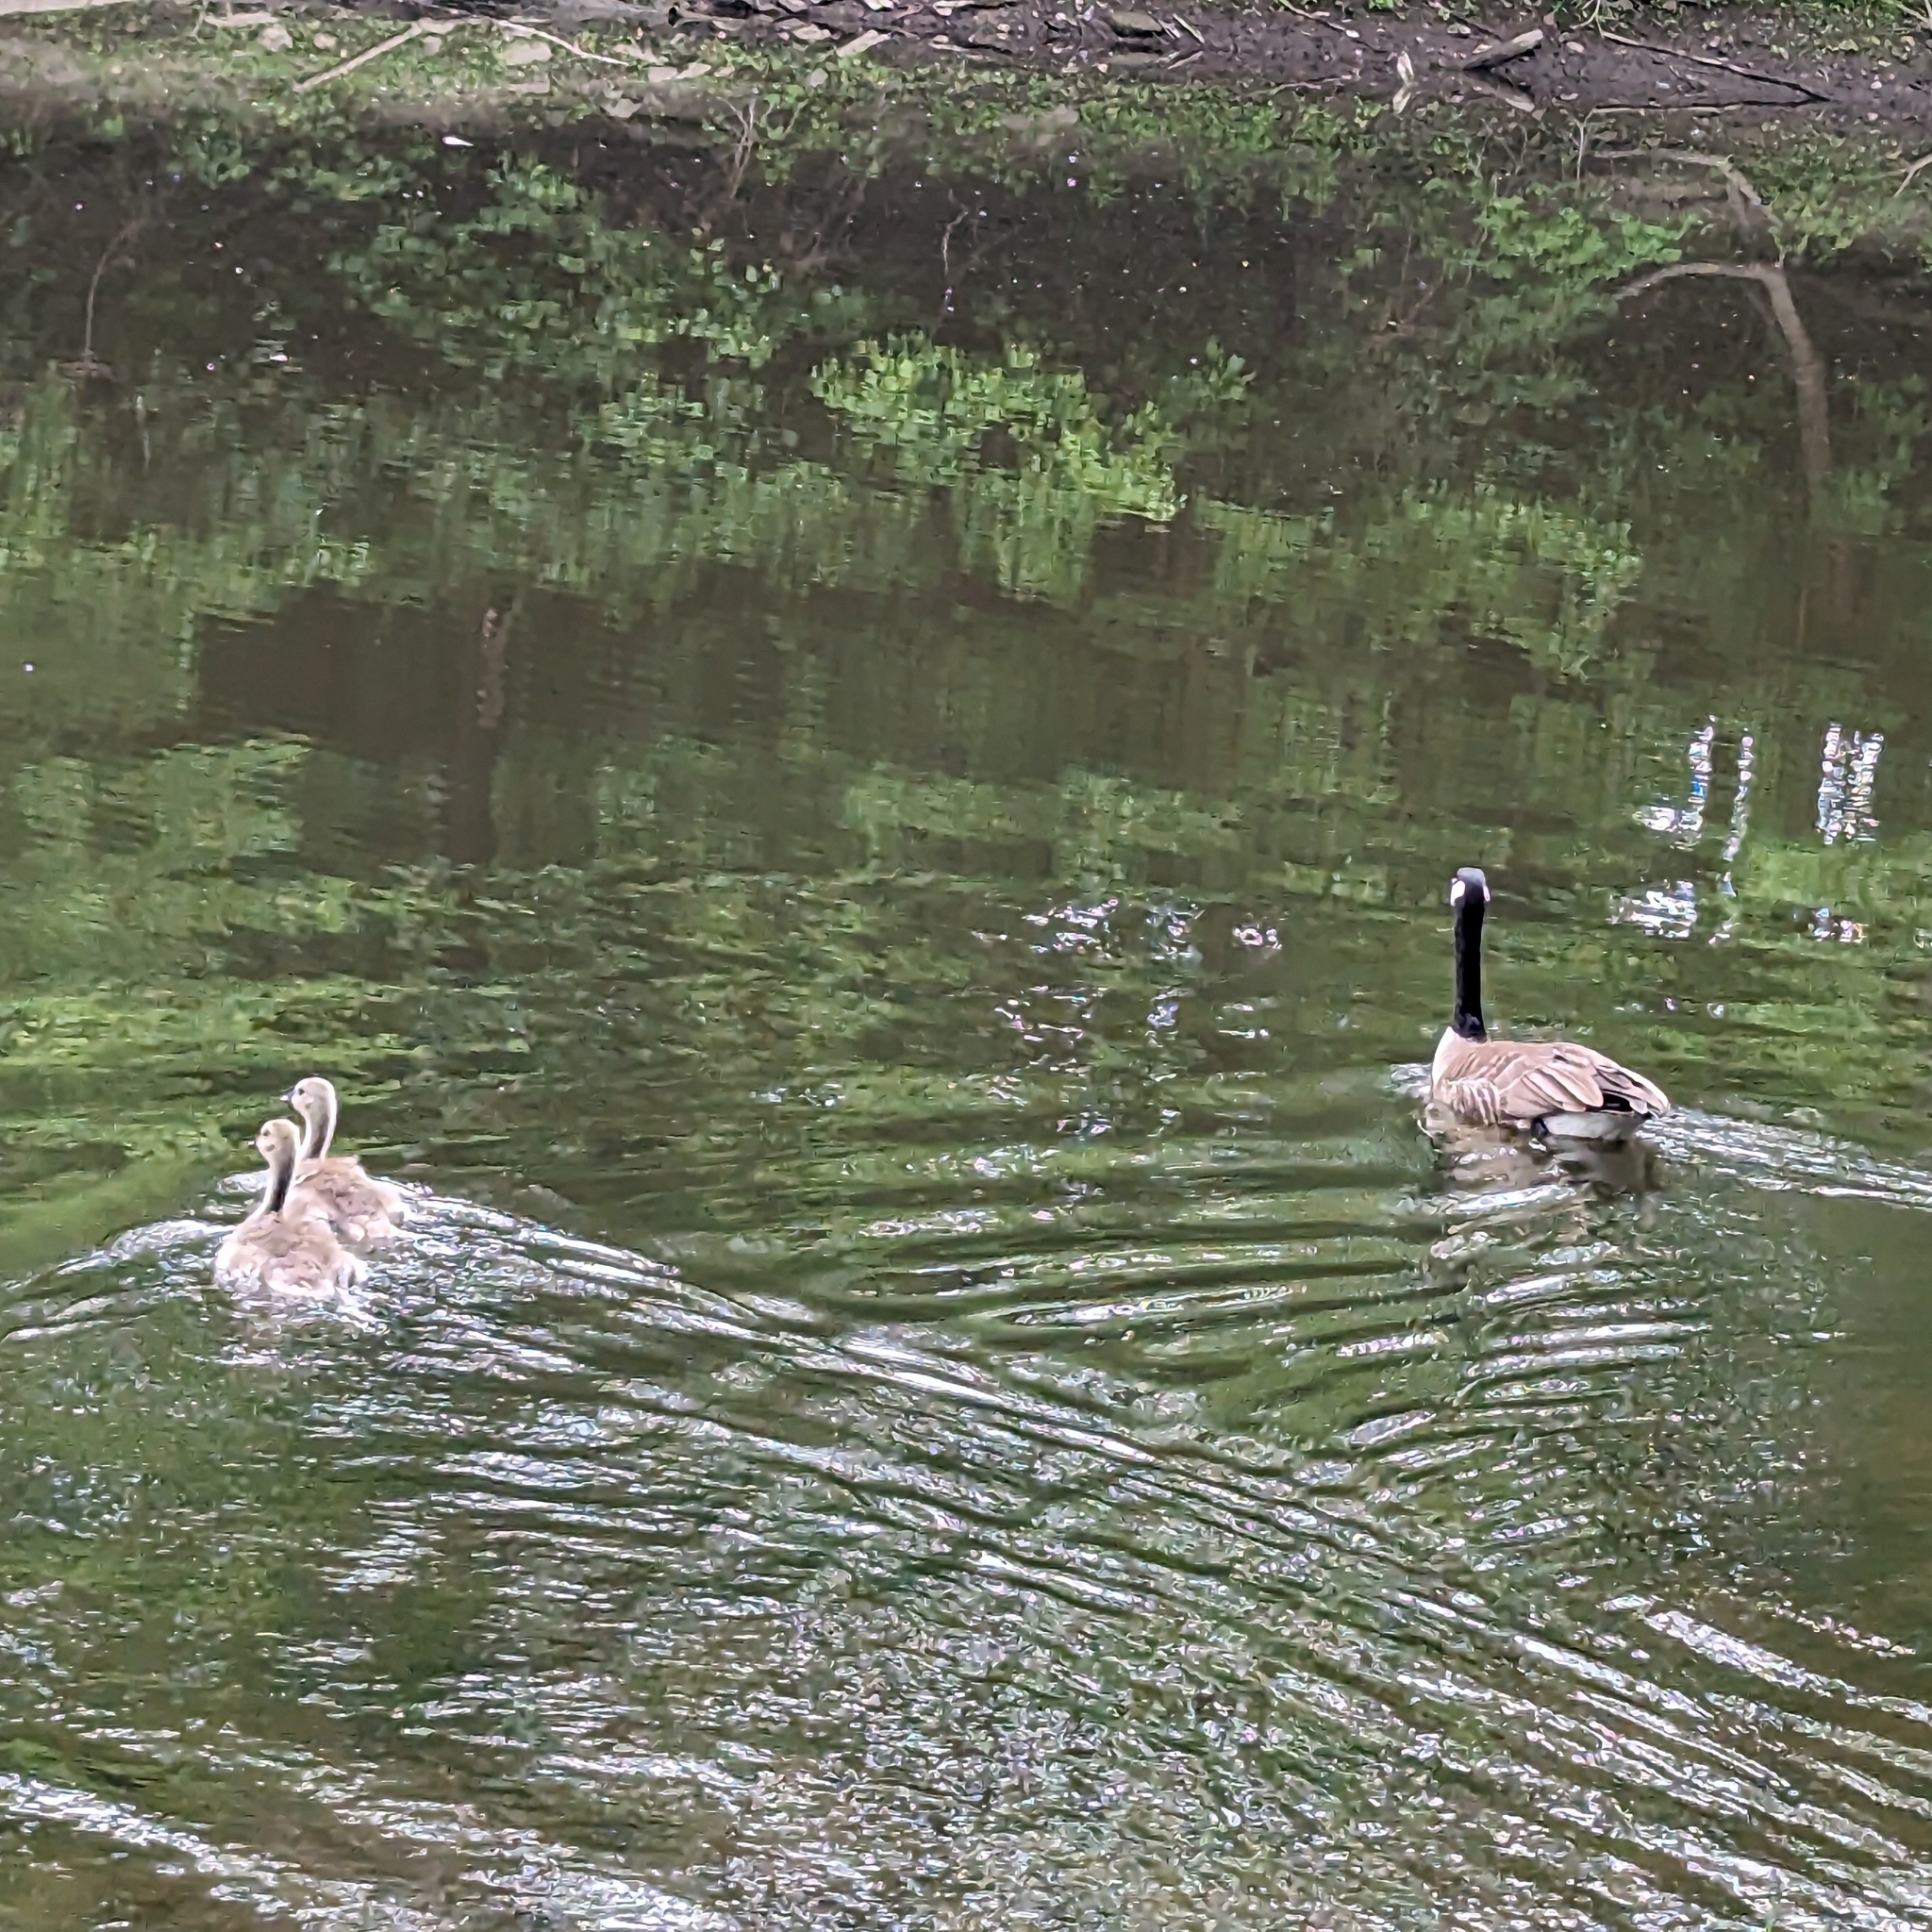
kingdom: Animalia
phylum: Chordata
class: Aves
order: Anseriformes
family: Anatidae
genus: Branta
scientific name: Branta canadensis
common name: Canada goose
